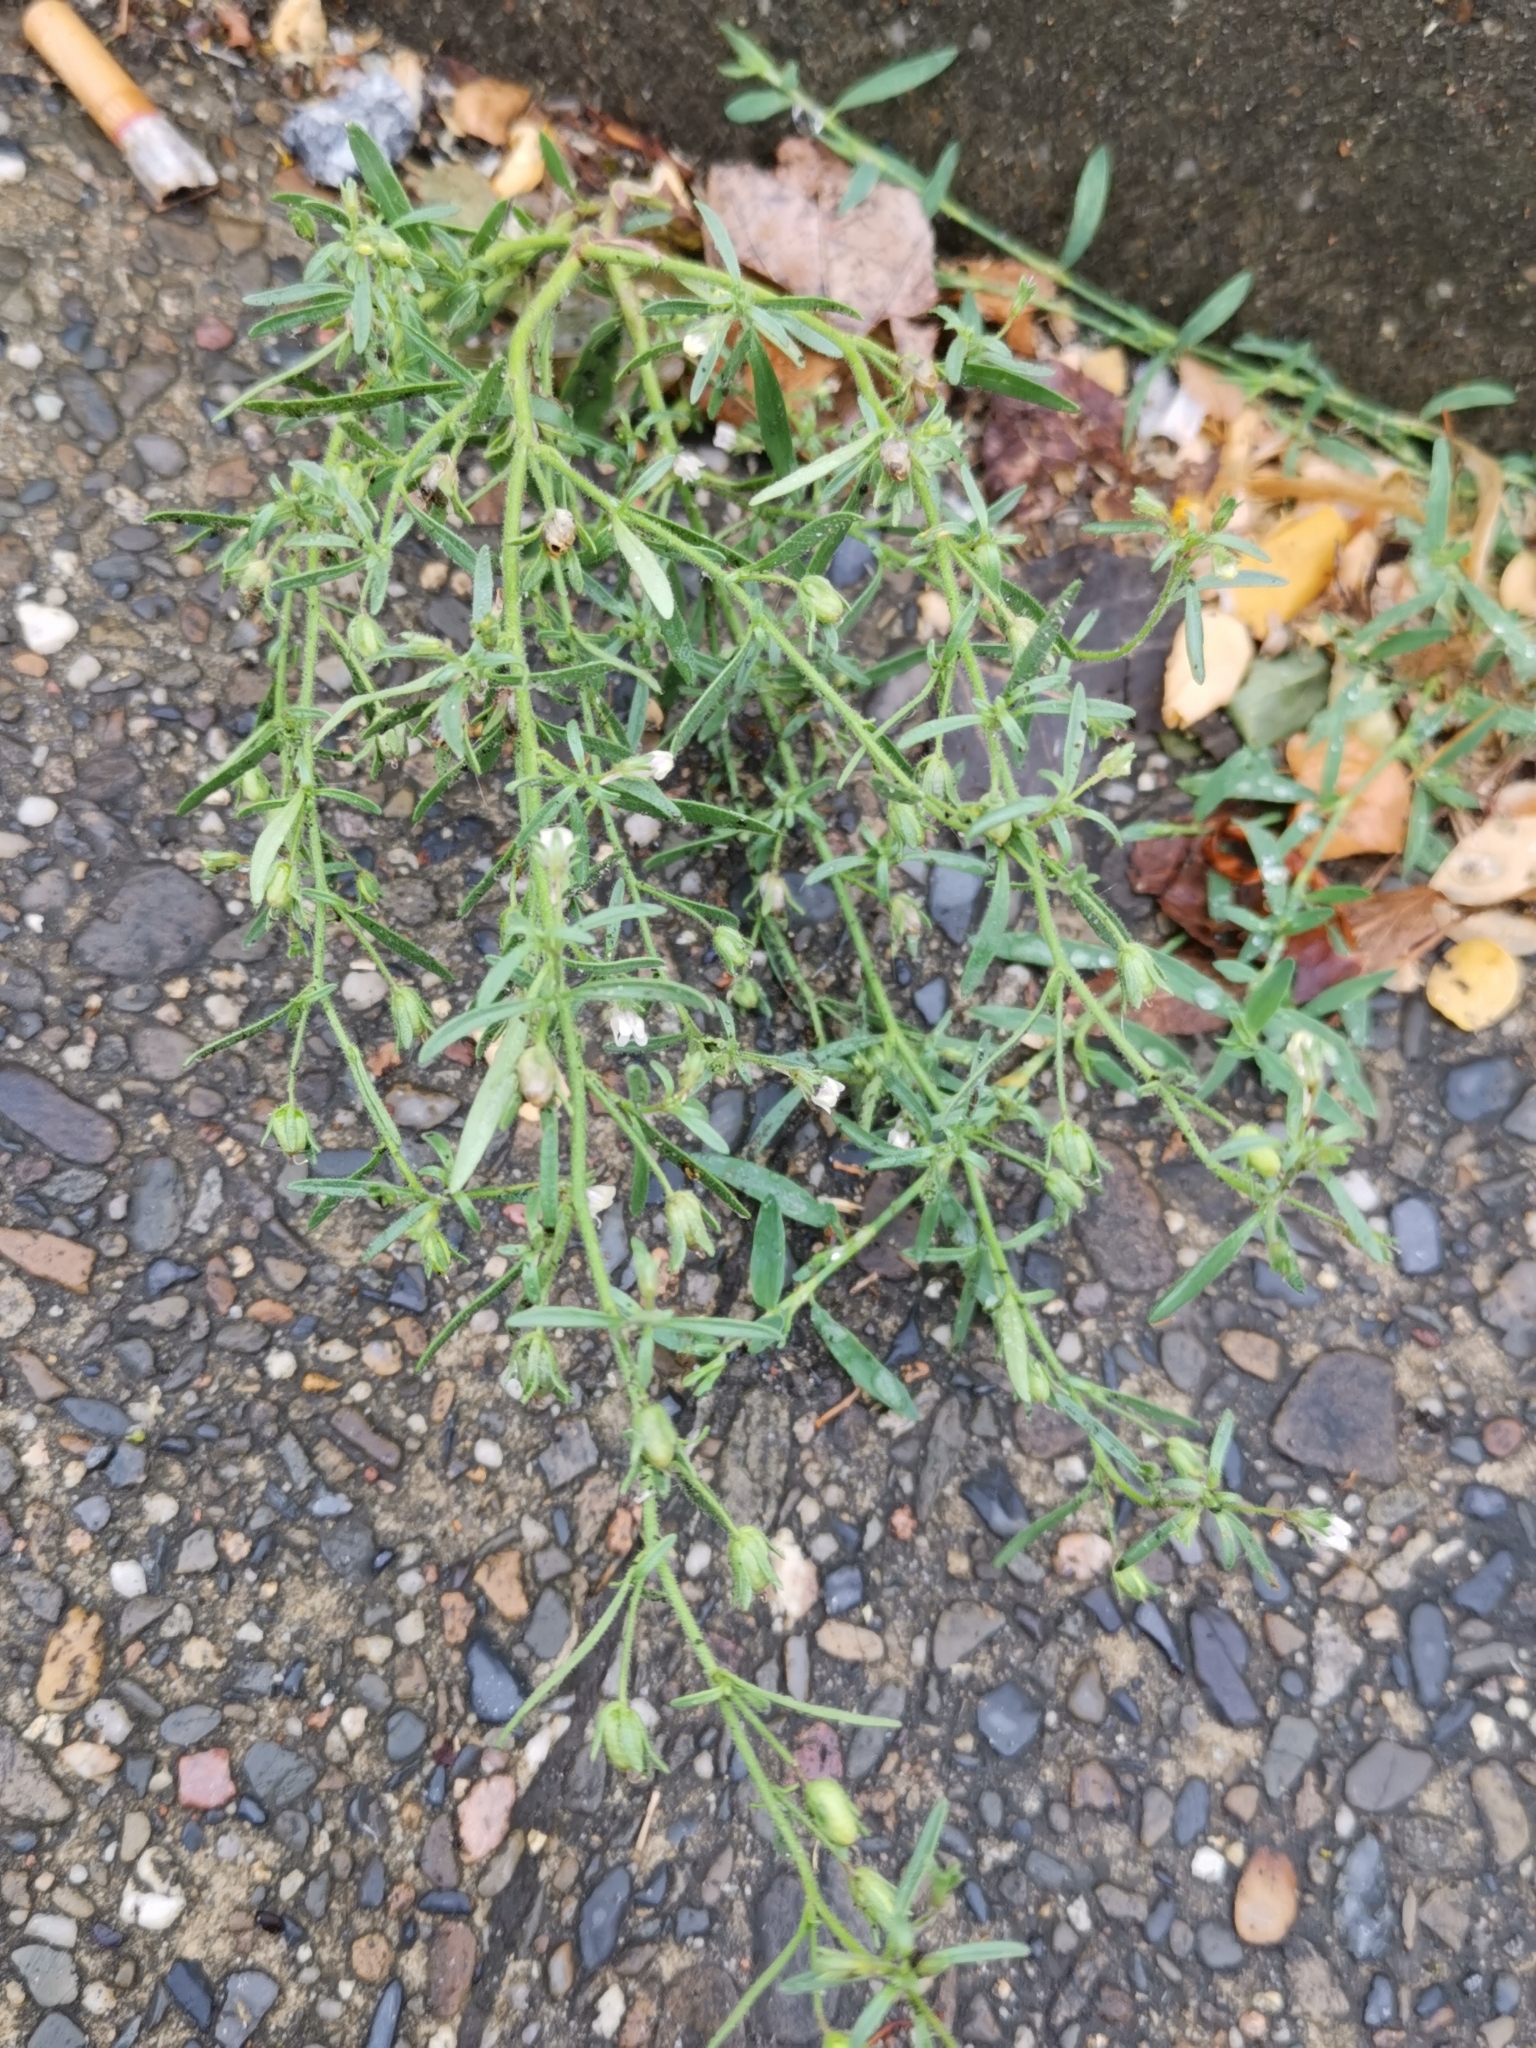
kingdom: Plantae
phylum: Tracheophyta
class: Magnoliopsida
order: Lamiales
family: Plantaginaceae
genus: Chaenorhinum
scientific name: Chaenorhinum minus
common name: Dwarf snapdragon
